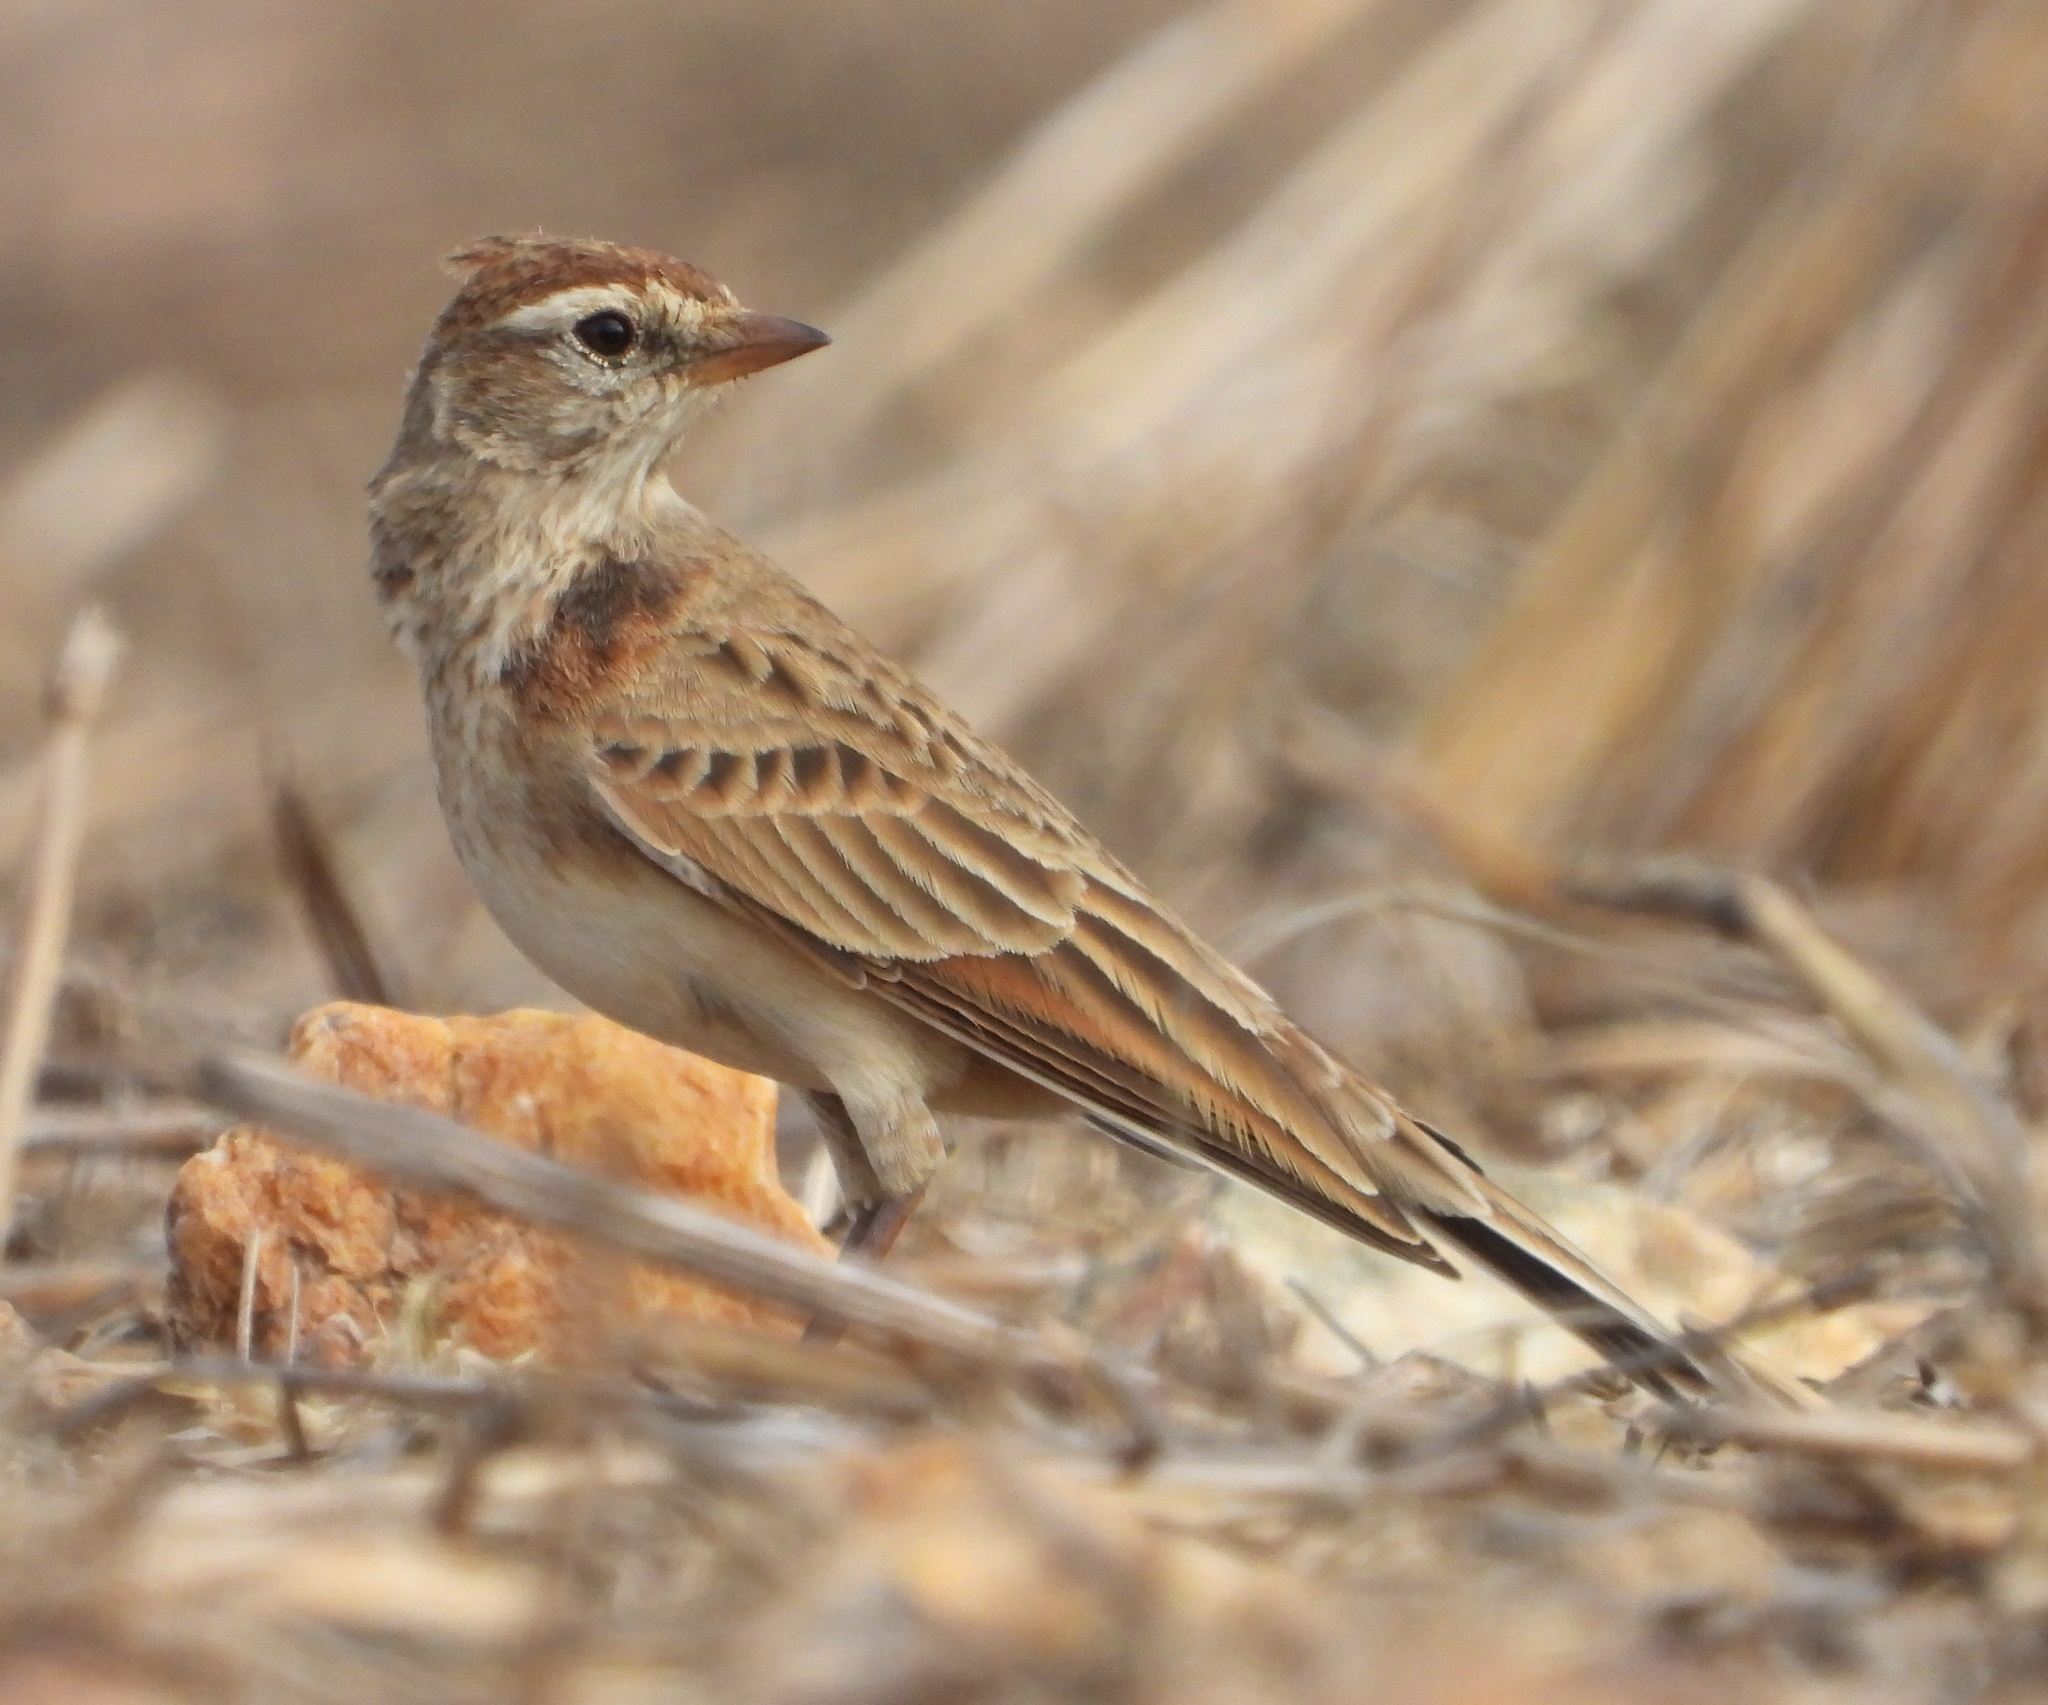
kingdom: Animalia
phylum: Chordata
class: Aves
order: Passeriformes
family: Alaudidae
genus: Calandrella
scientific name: Calandrella cinerea
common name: Red-capped lark
